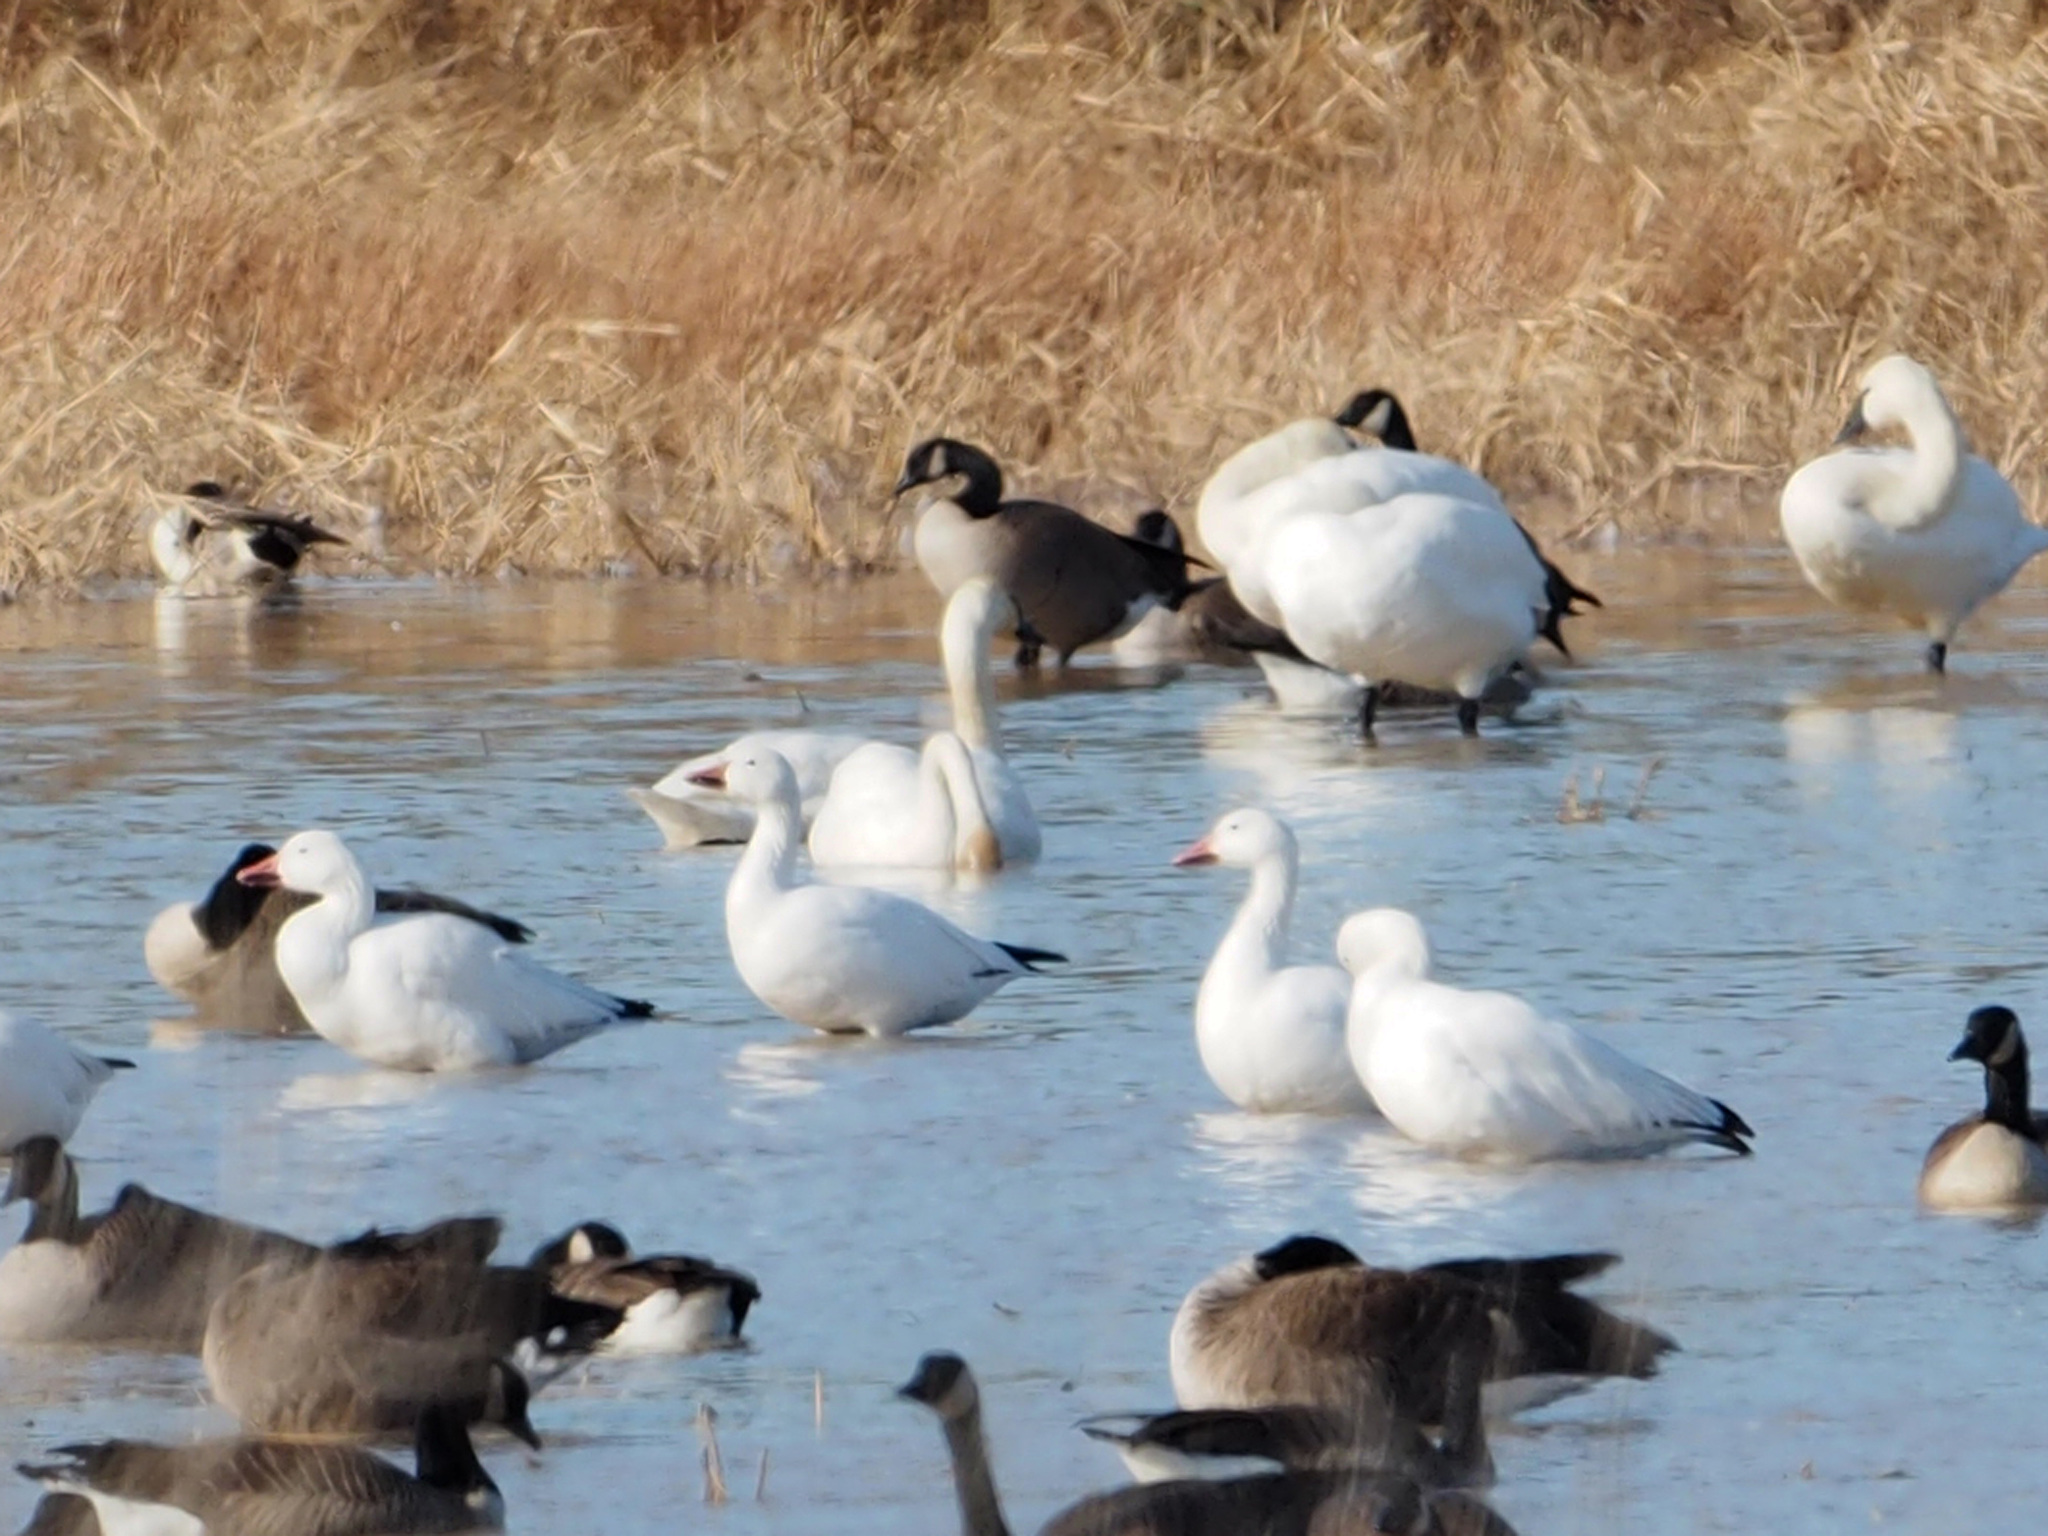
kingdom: Animalia
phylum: Chordata
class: Aves
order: Anseriformes
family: Anatidae
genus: Anser
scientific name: Anser caerulescens
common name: Snow goose
